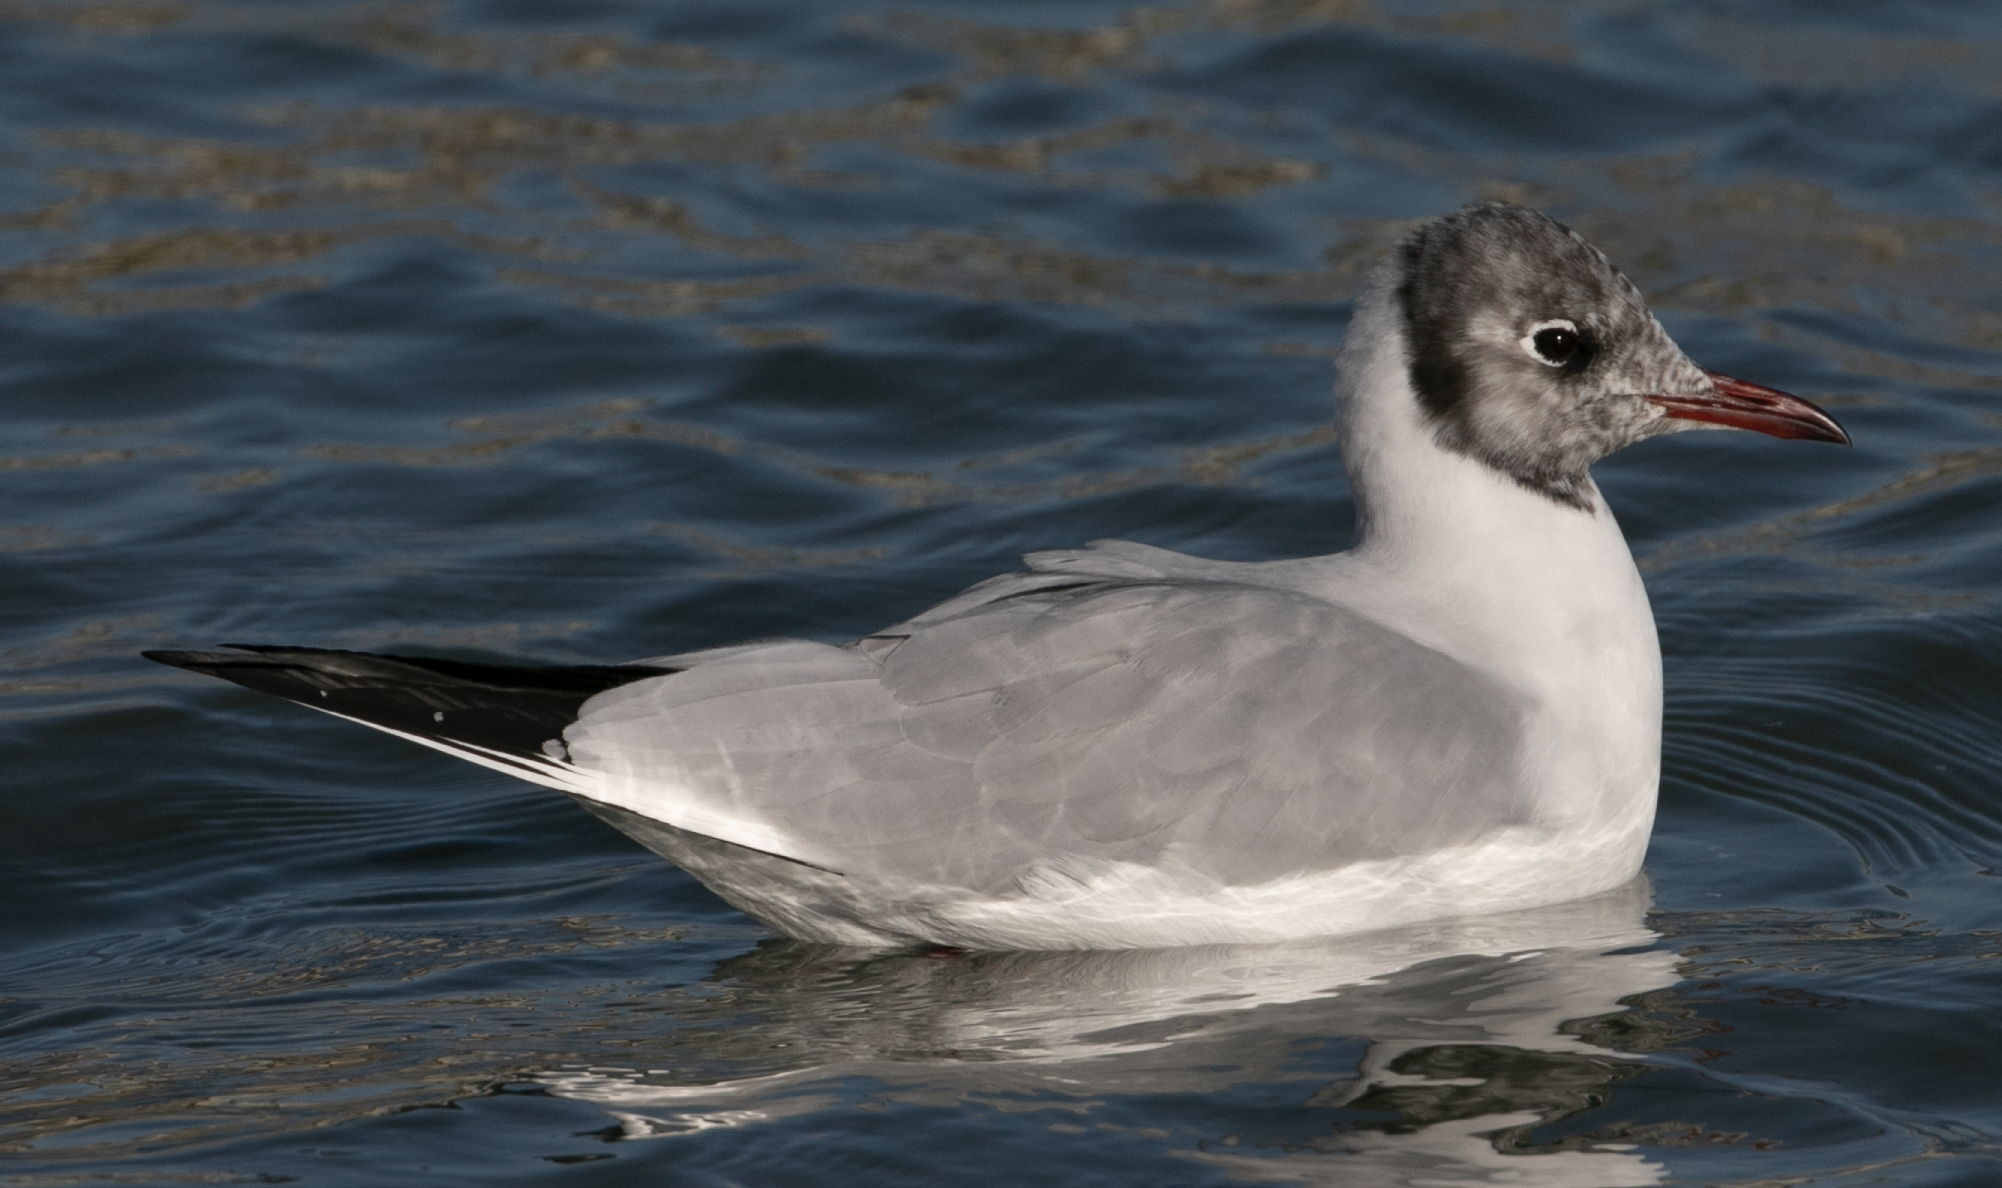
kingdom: Animalia
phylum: Chordata
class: Aves
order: Charadriiformes
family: Laridae
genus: Chroicocephalus
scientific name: Chroicocephalus ridibundus
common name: Black-headed gull
